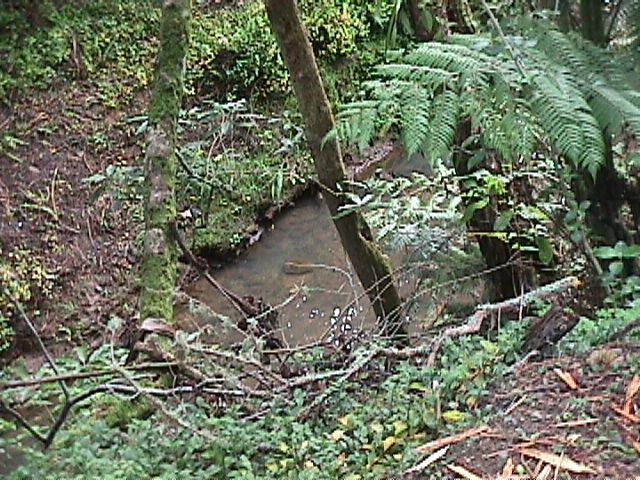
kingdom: Plantae
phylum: Tracheophyta
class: Liliopsida
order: Commelinales
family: Commelinaceae
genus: Tradescantia
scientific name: Tradescantia fluminensis
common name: Wandering-jew
